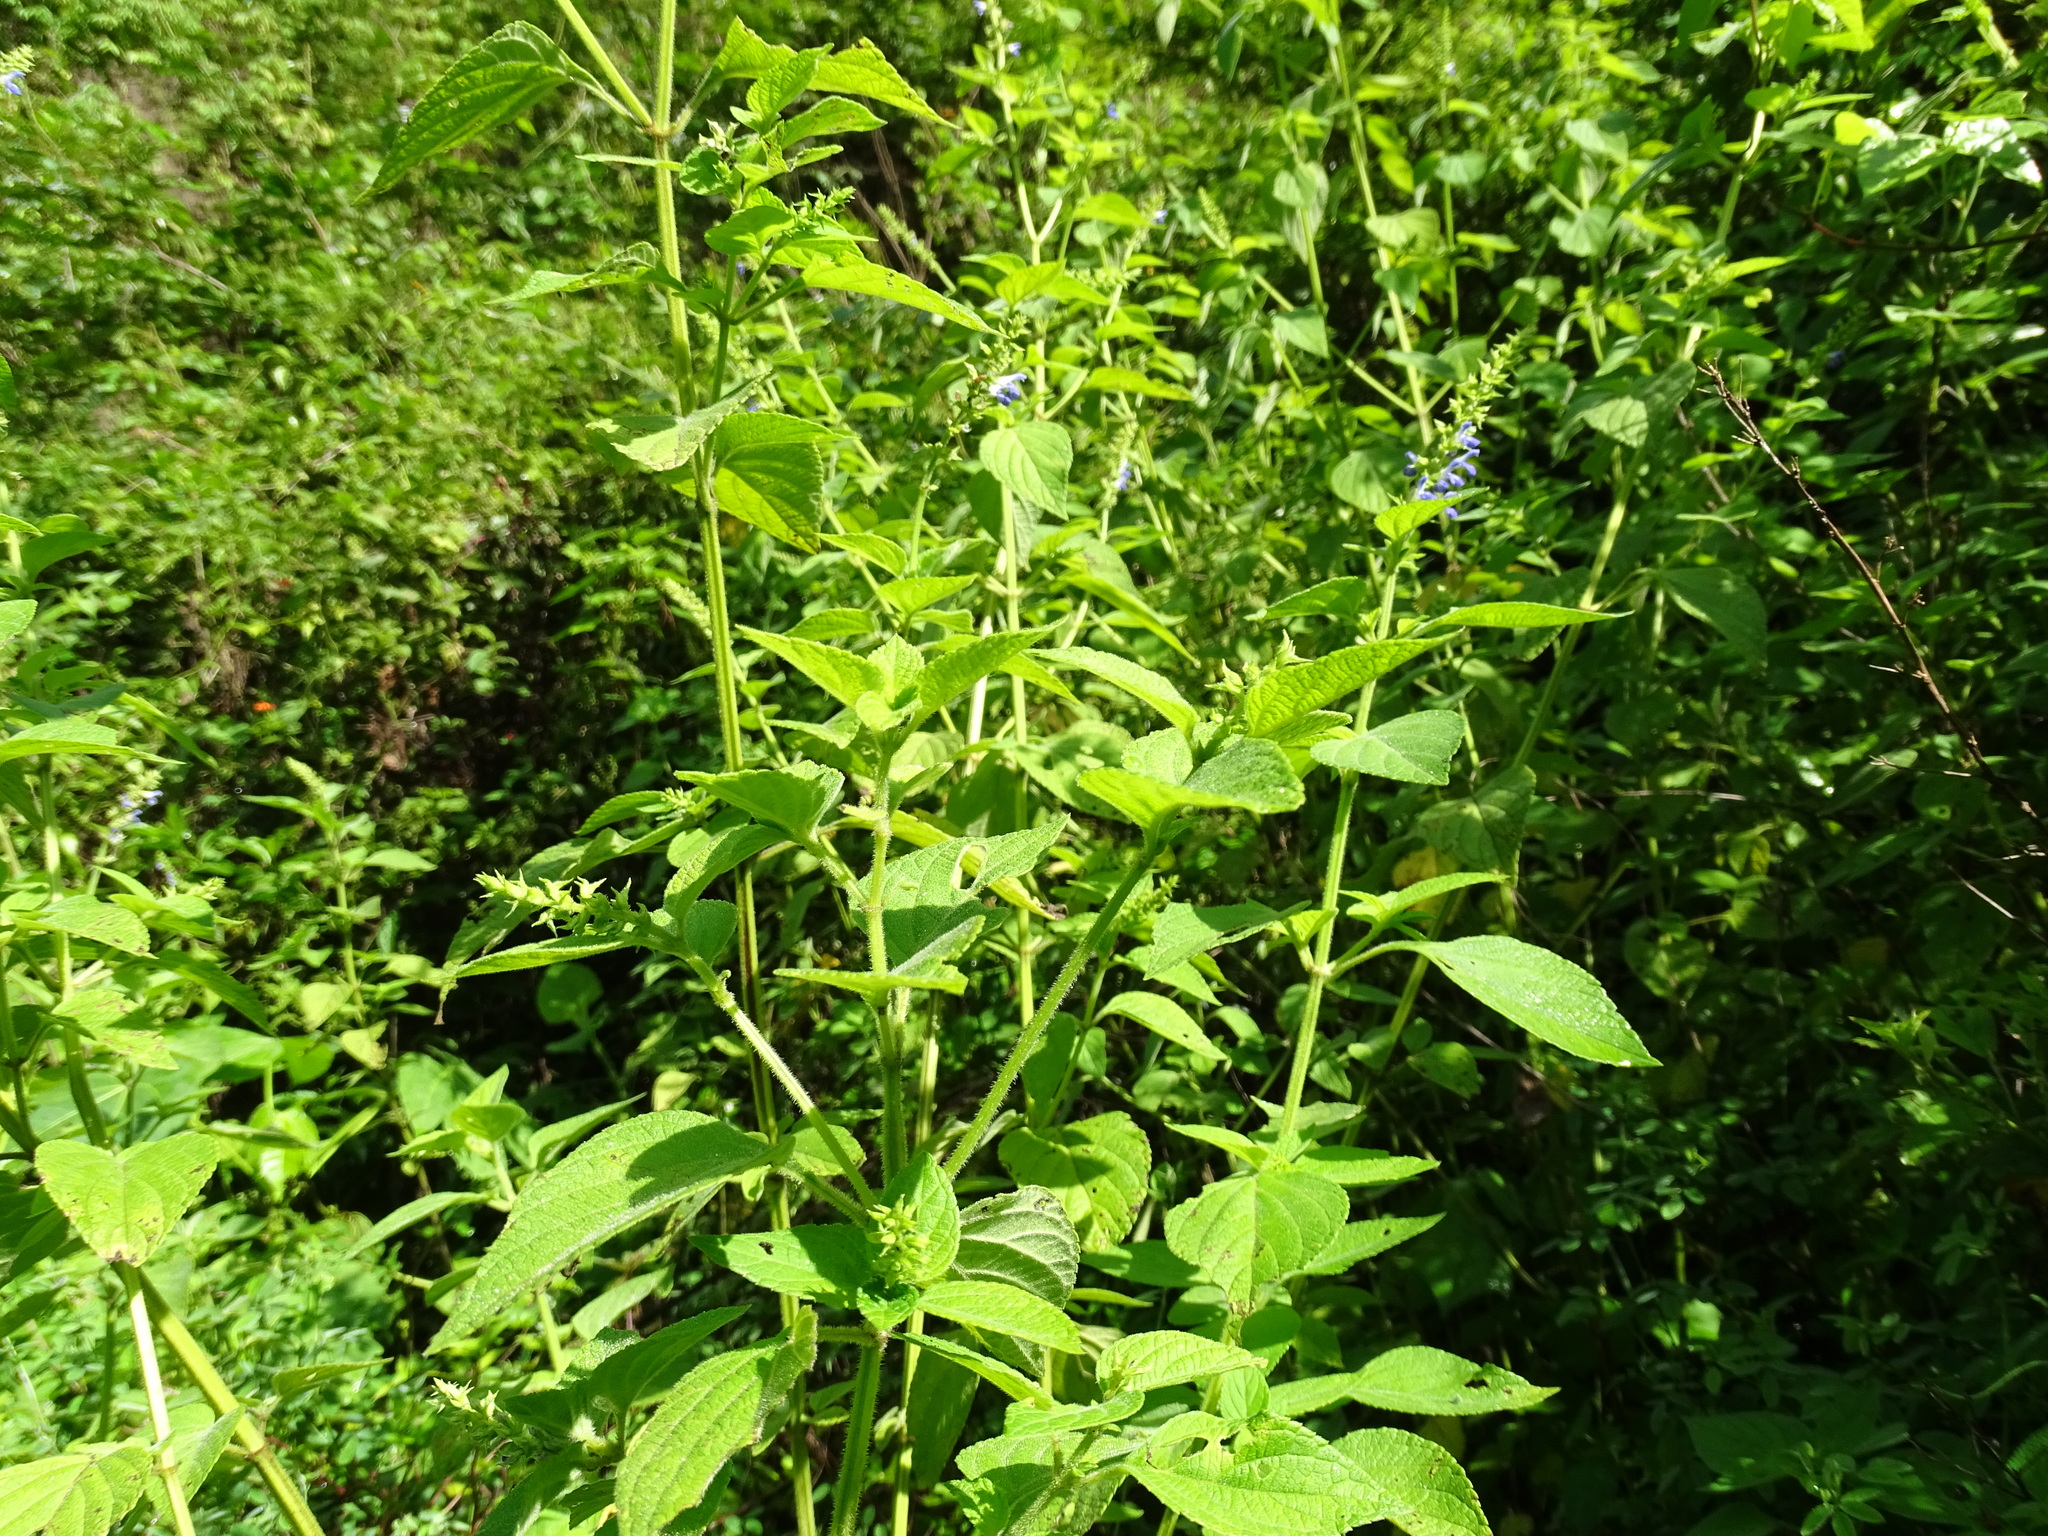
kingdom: Plantae
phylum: Tracheophyta
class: Magnoliopsida
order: Lamiales
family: Lamiaceae
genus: Salvia
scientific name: Salvia xalapensis
